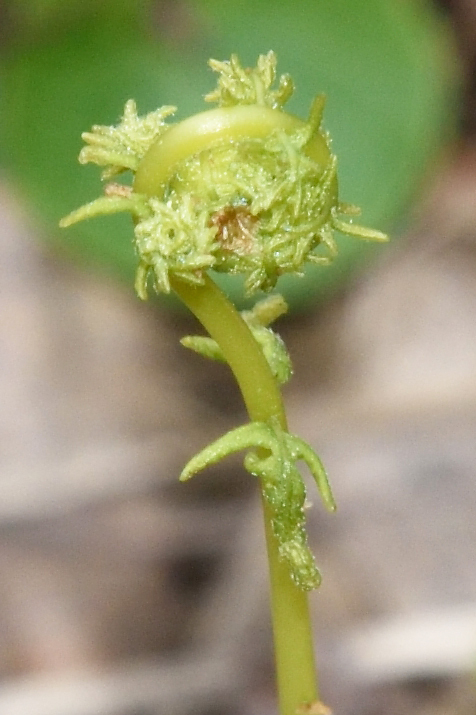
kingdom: Plantae
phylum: Tracheophyta
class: Polypodiopsida
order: Polypodiales
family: Thelypteridaceae
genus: Thelypteris
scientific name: Thelypteris palustris
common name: Marsh fern
